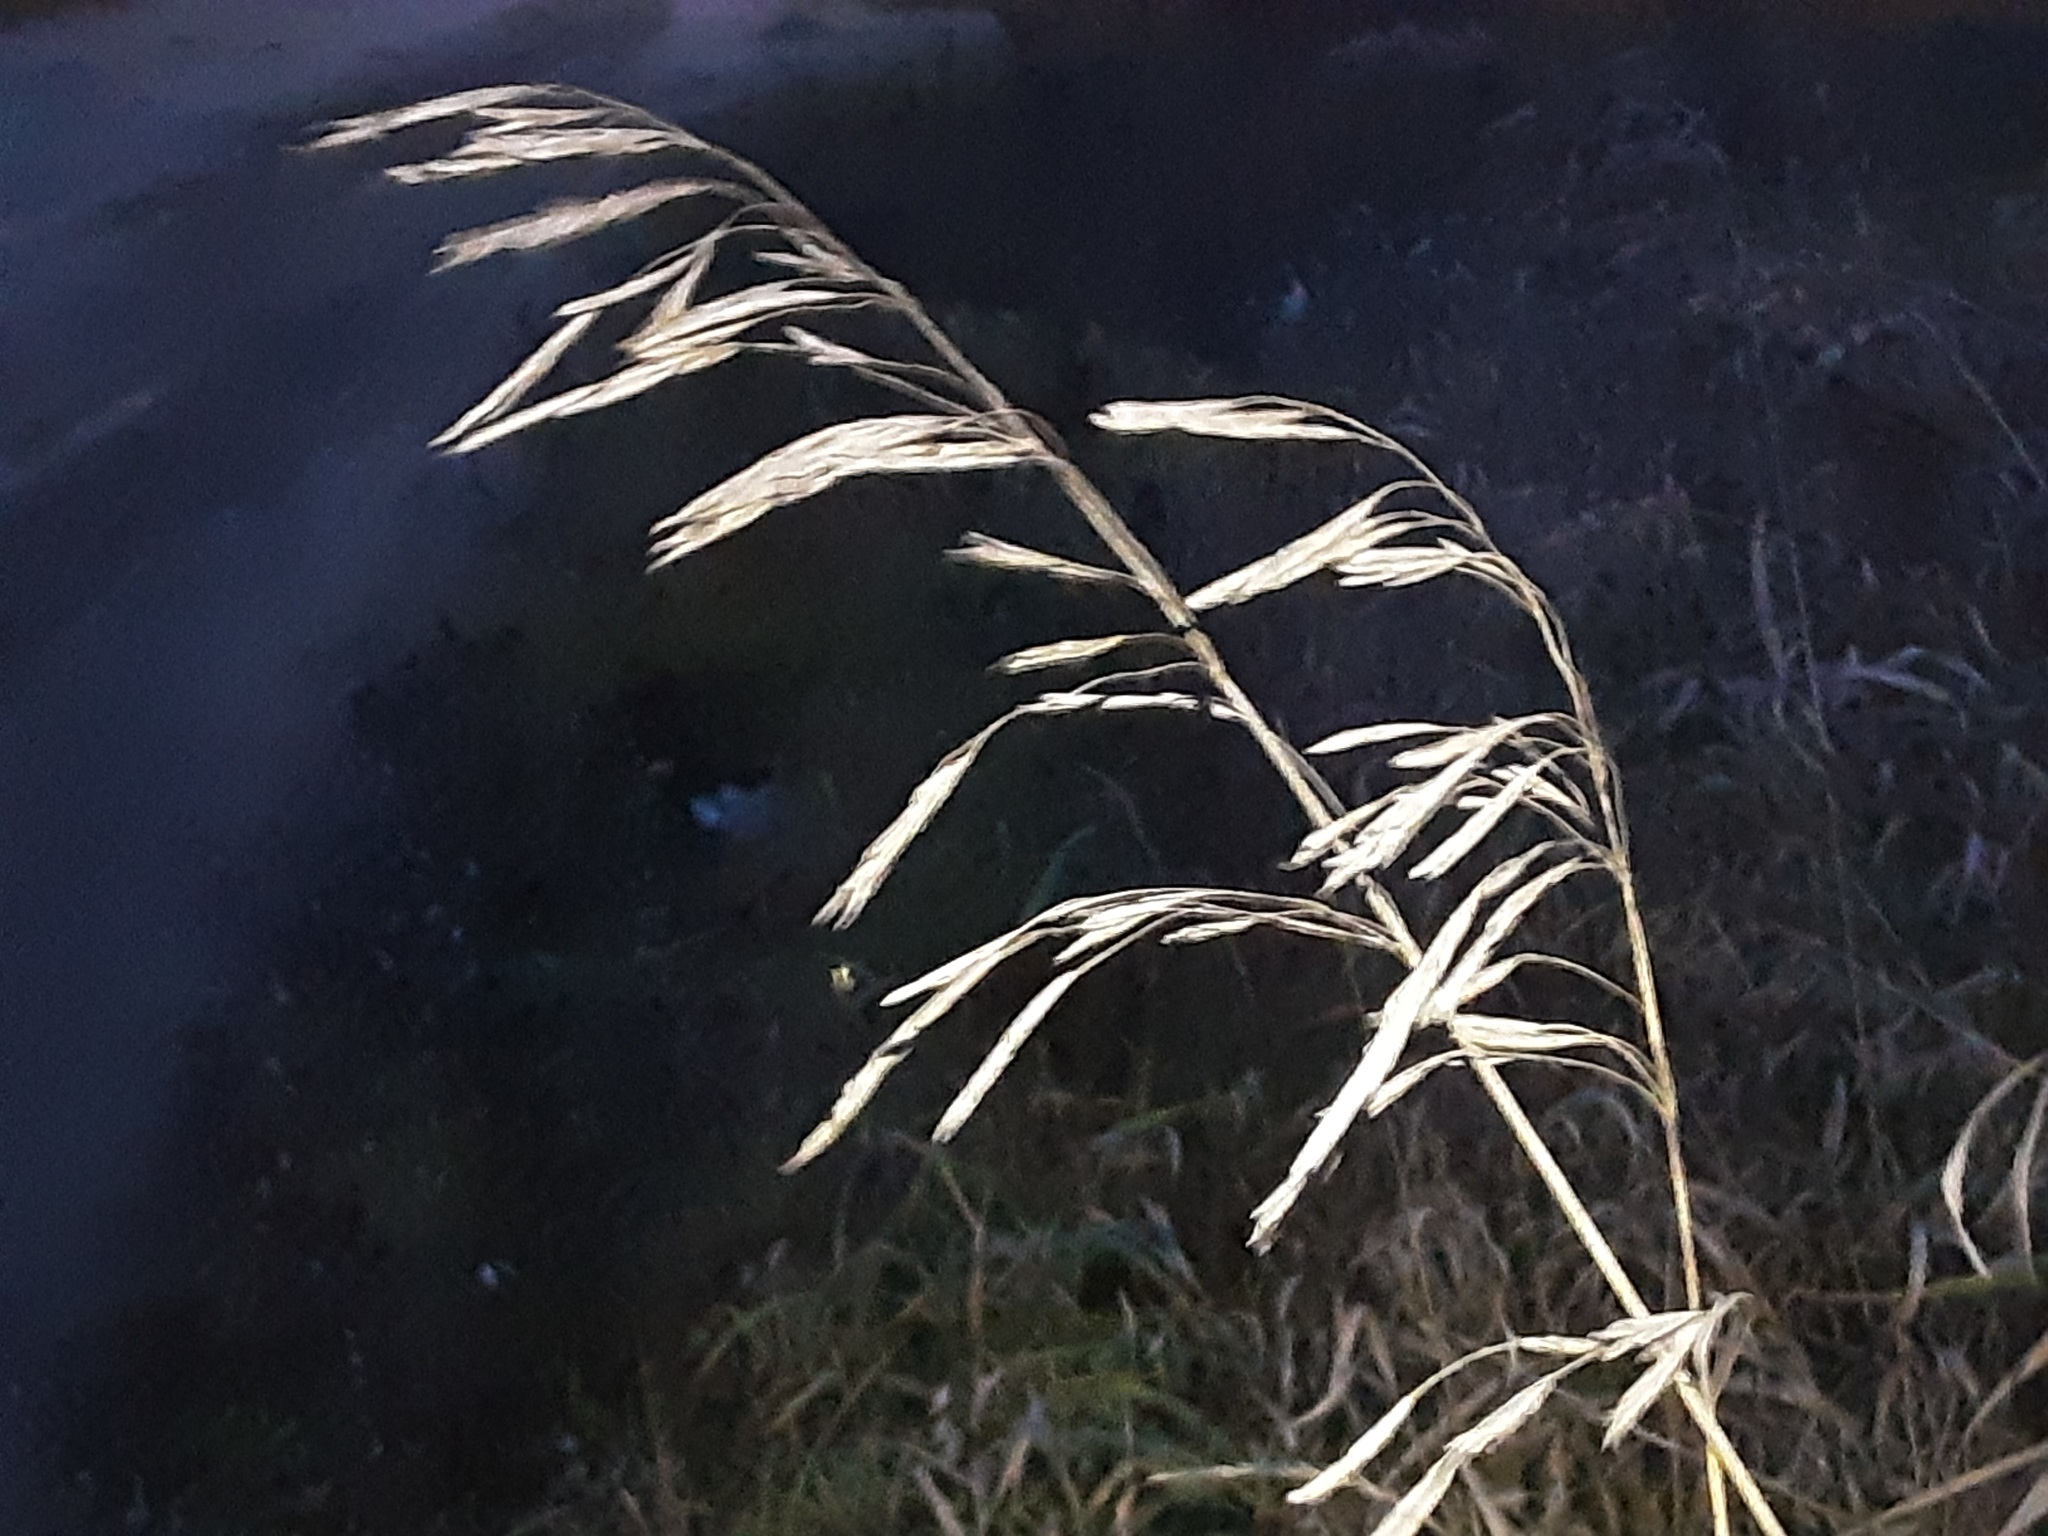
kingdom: Plantae
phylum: Tracheophyta
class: Liliopsida
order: Poales
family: Poaceae
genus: Bromus
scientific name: Bromus inermis
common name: Smooth brome
